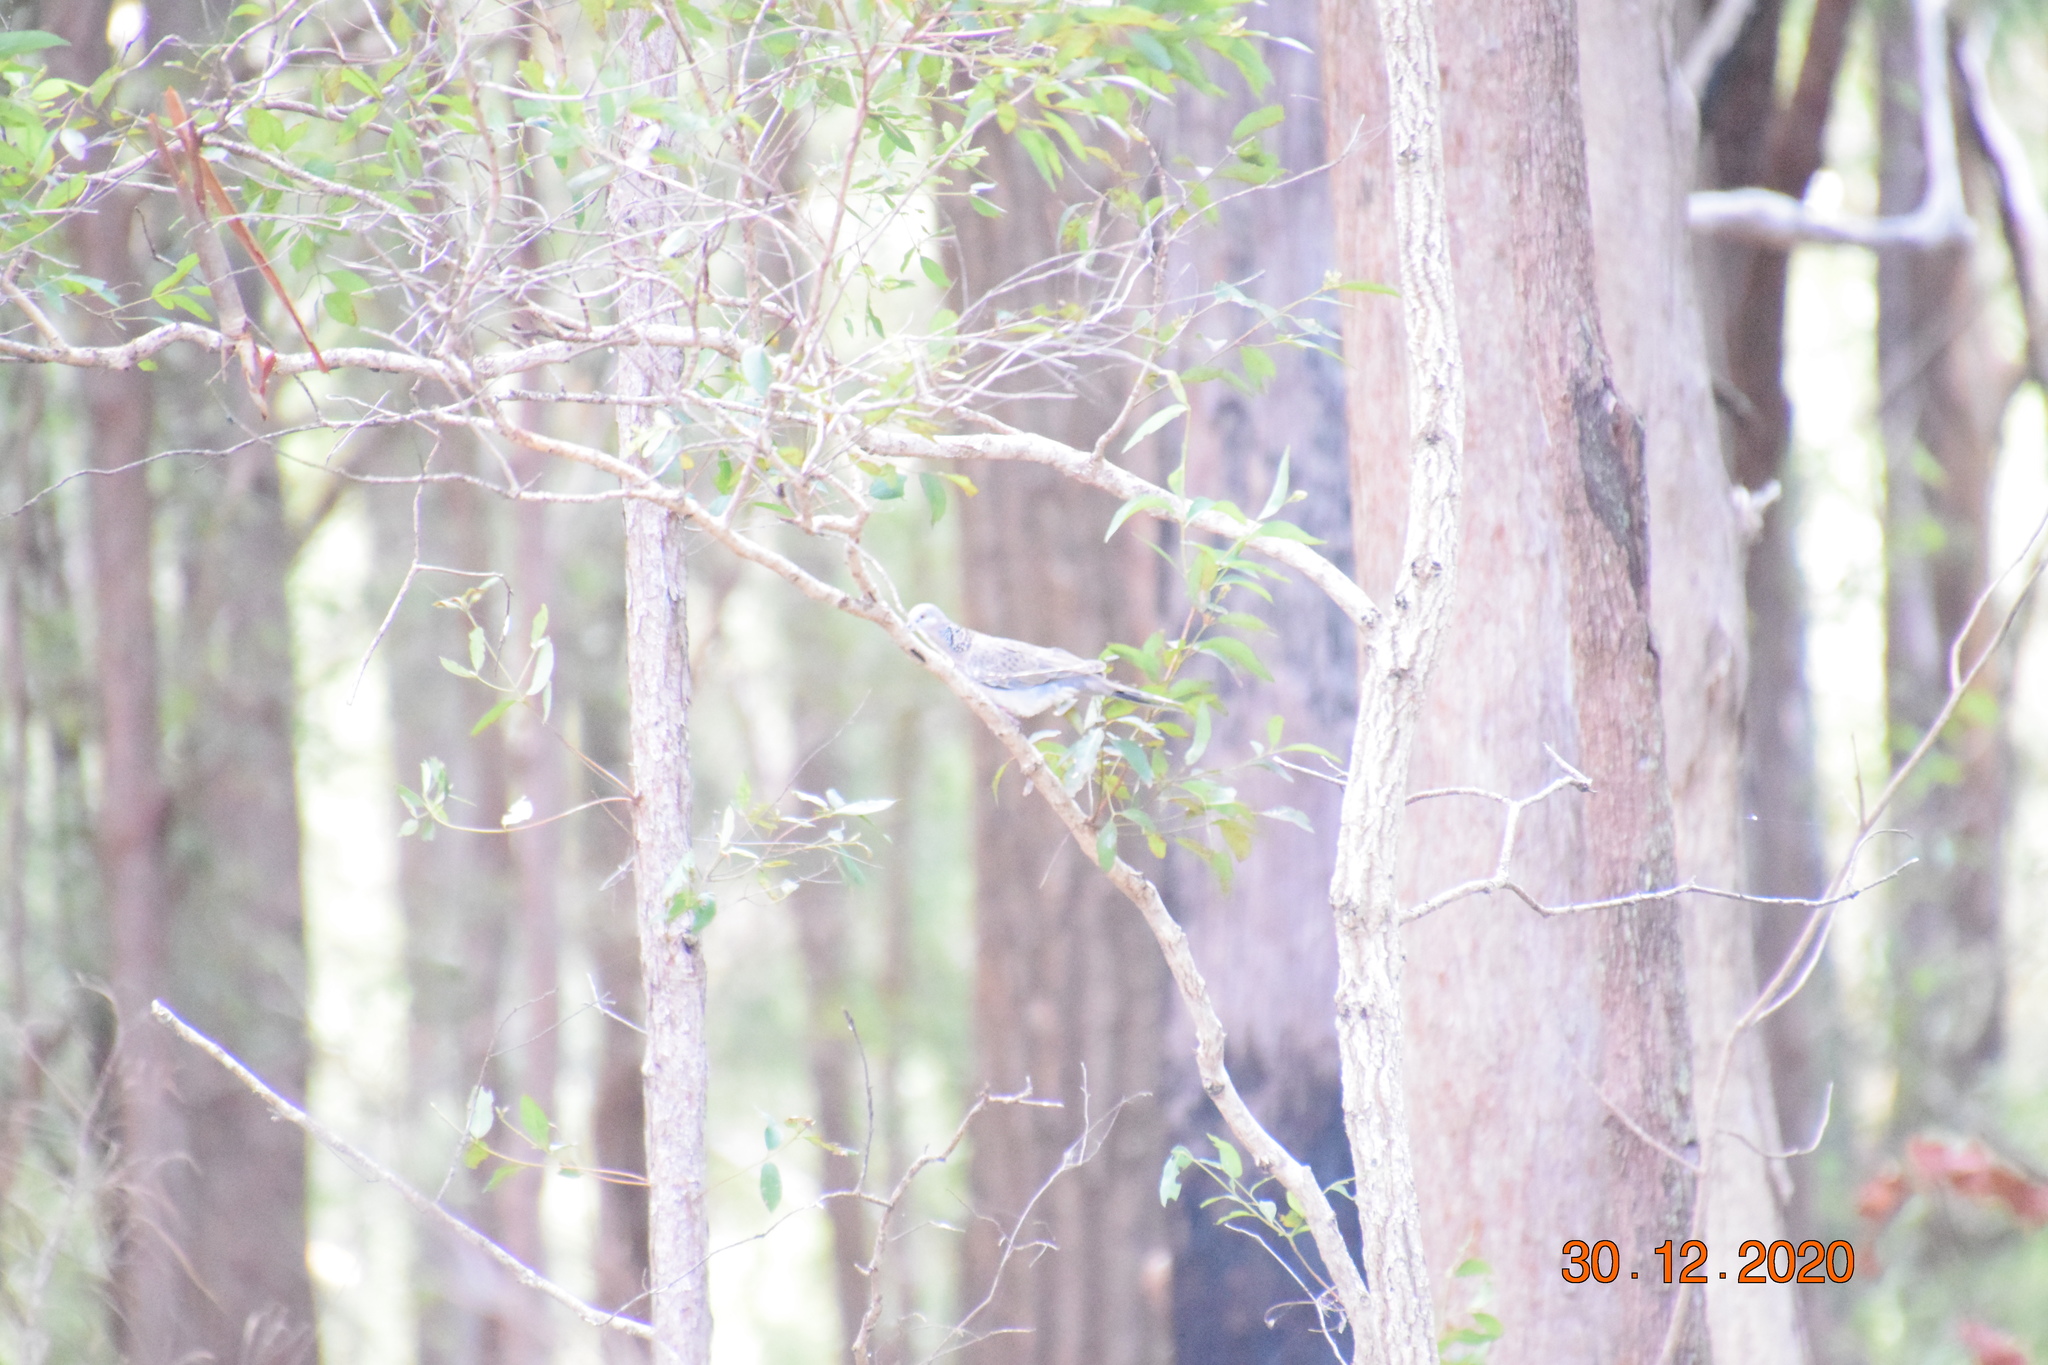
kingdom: Animalia
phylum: Chordata
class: Aves
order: Columbiformes
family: Columbidae
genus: Spilopelia
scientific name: Spilopelia chinensis
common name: Spotted dove
